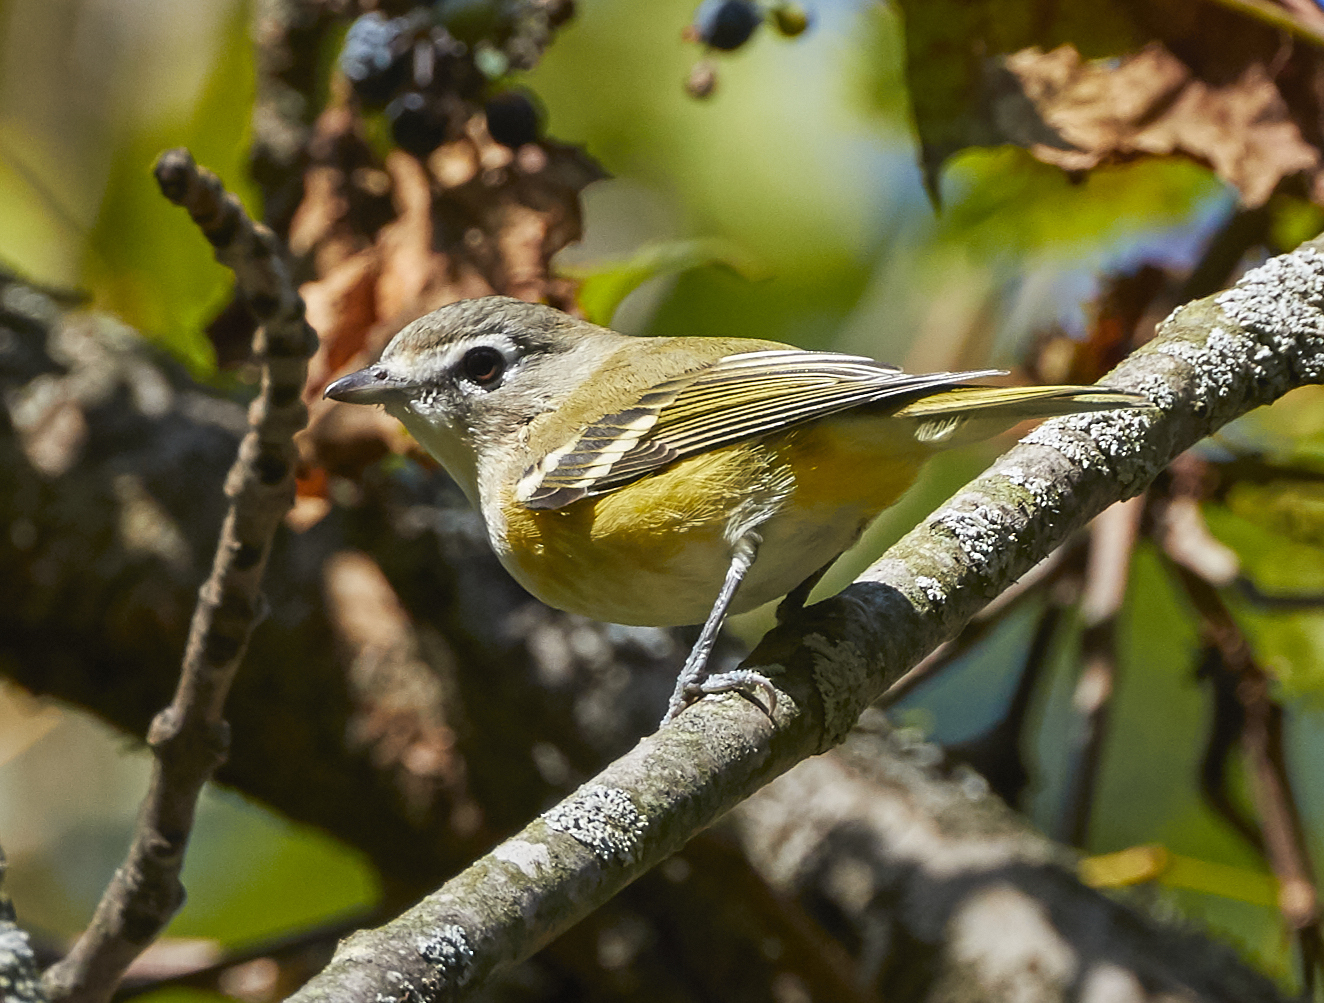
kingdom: Animalia
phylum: Chordata
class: Aves
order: Passeriformes
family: Vireonidae
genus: Vireo
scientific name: Vireo solitarius
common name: Blue-headed vireo
